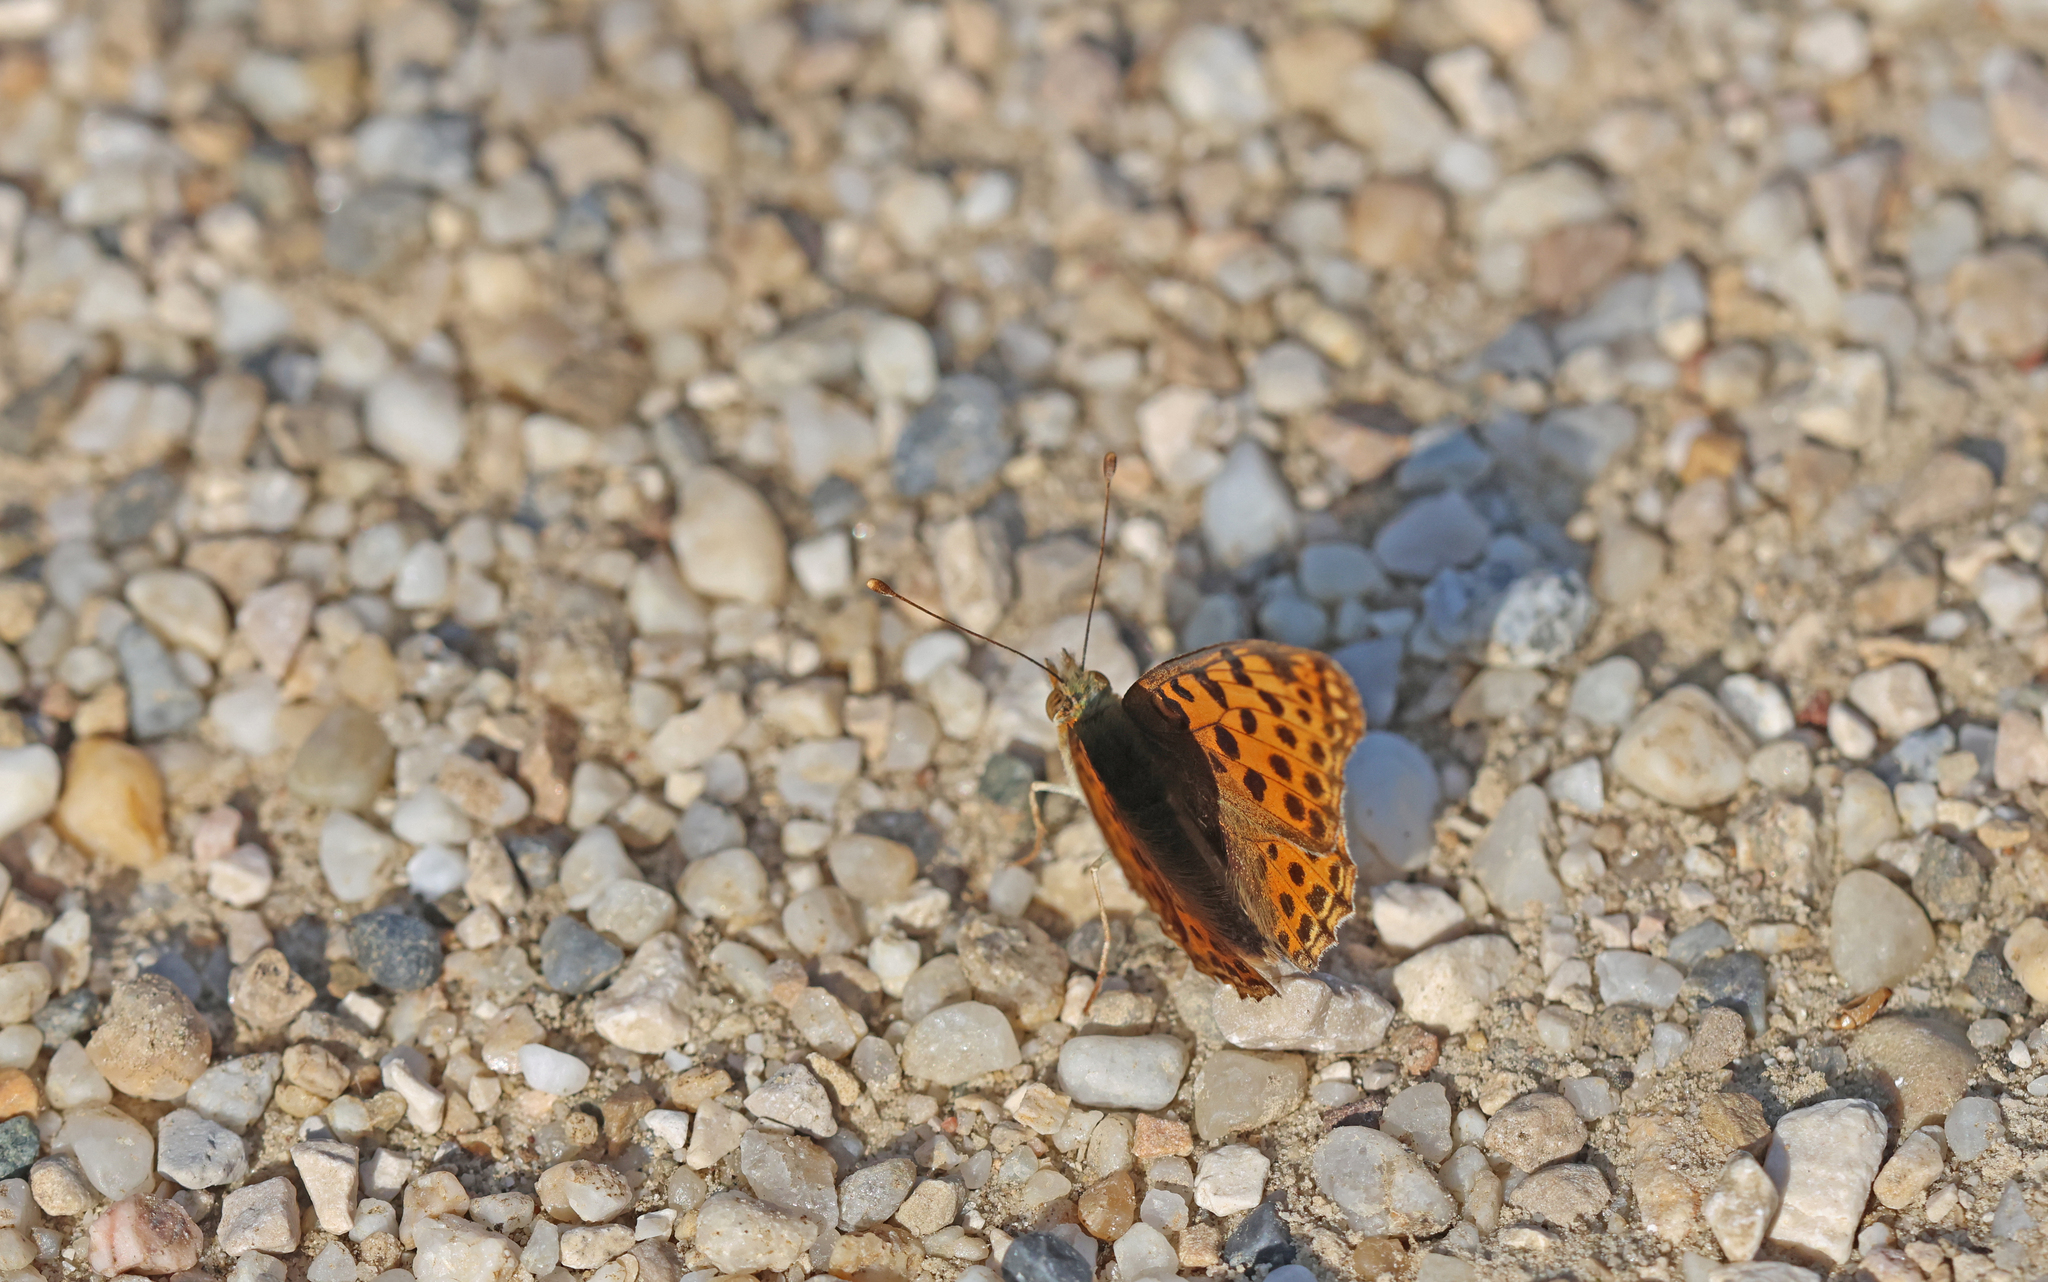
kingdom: Animalia
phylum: Arthropoda
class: Insecta
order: Lepidoptera
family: Nymphalidae
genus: Issoria
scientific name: Issoria lathonia
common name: Queen of spain fritillary
